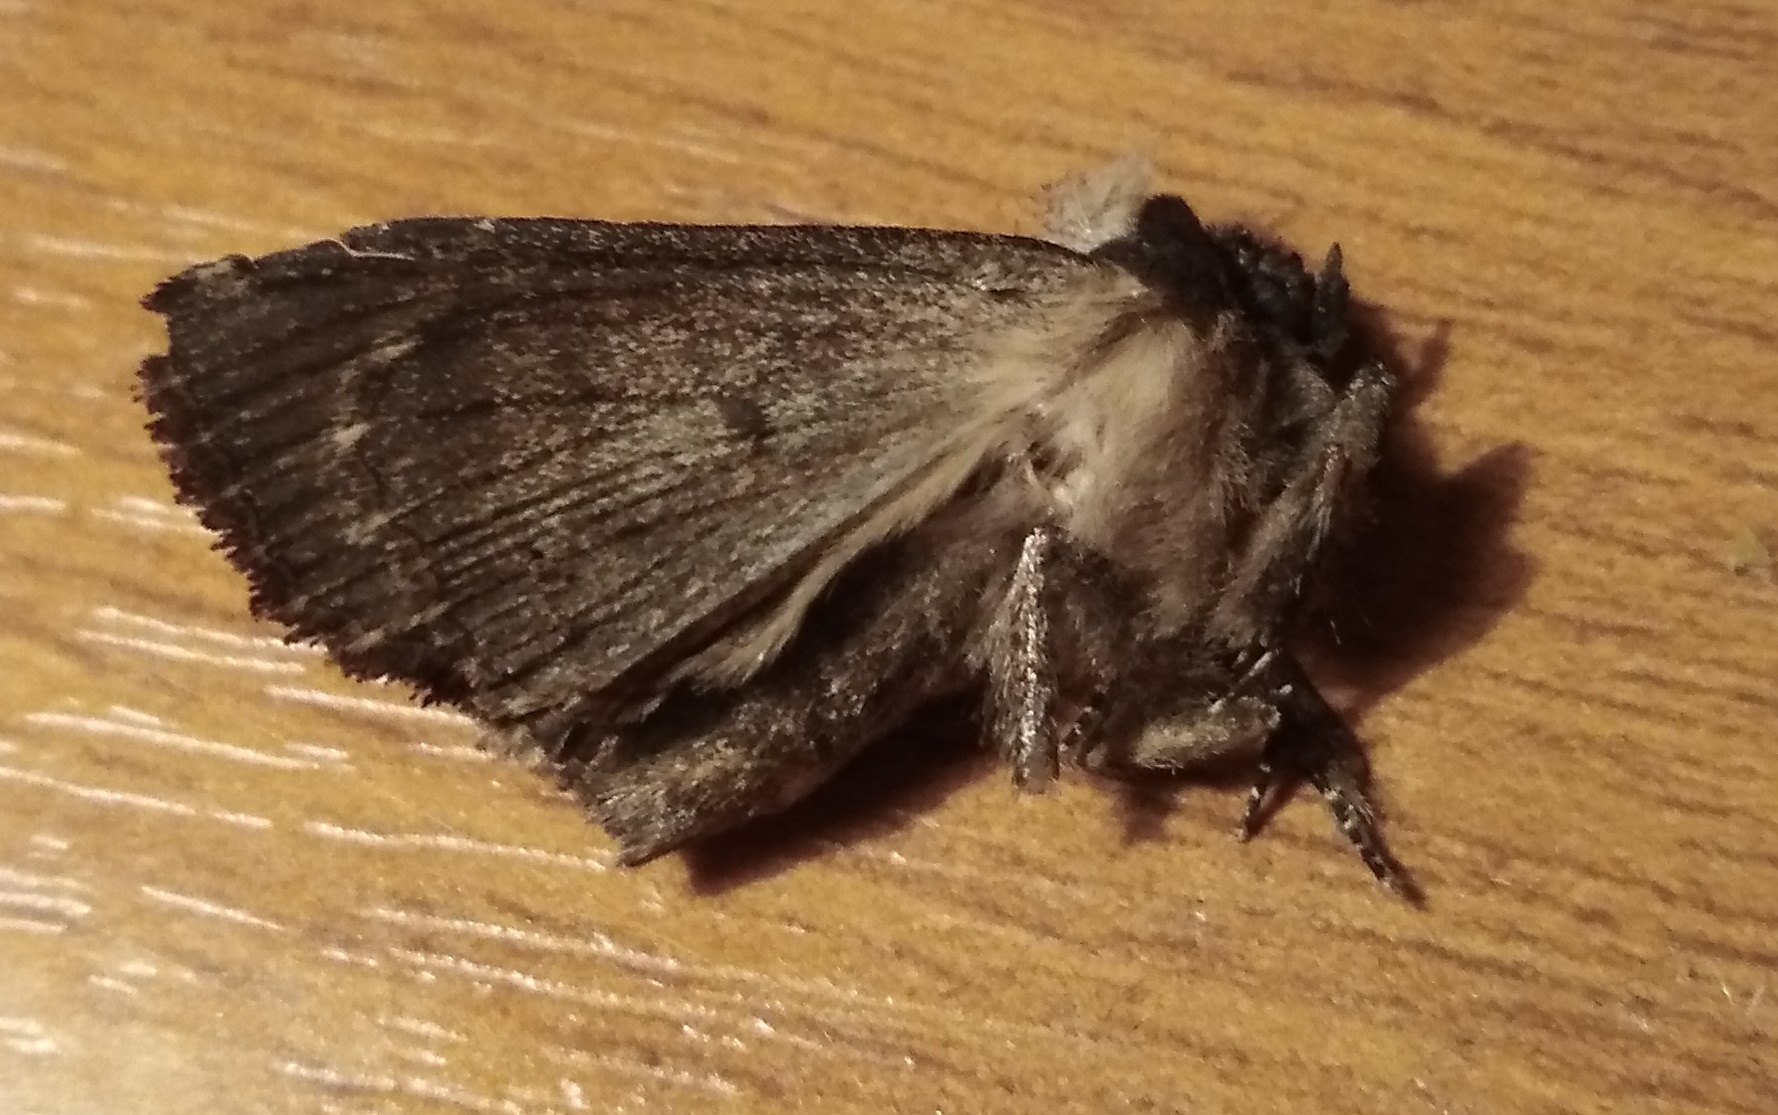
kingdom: Animalia
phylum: Arthropoda
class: Insecta
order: Lepidoptera
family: Noctuidae
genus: Dypterygia
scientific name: Dypterygia scabriuscula
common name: Bird's wing
